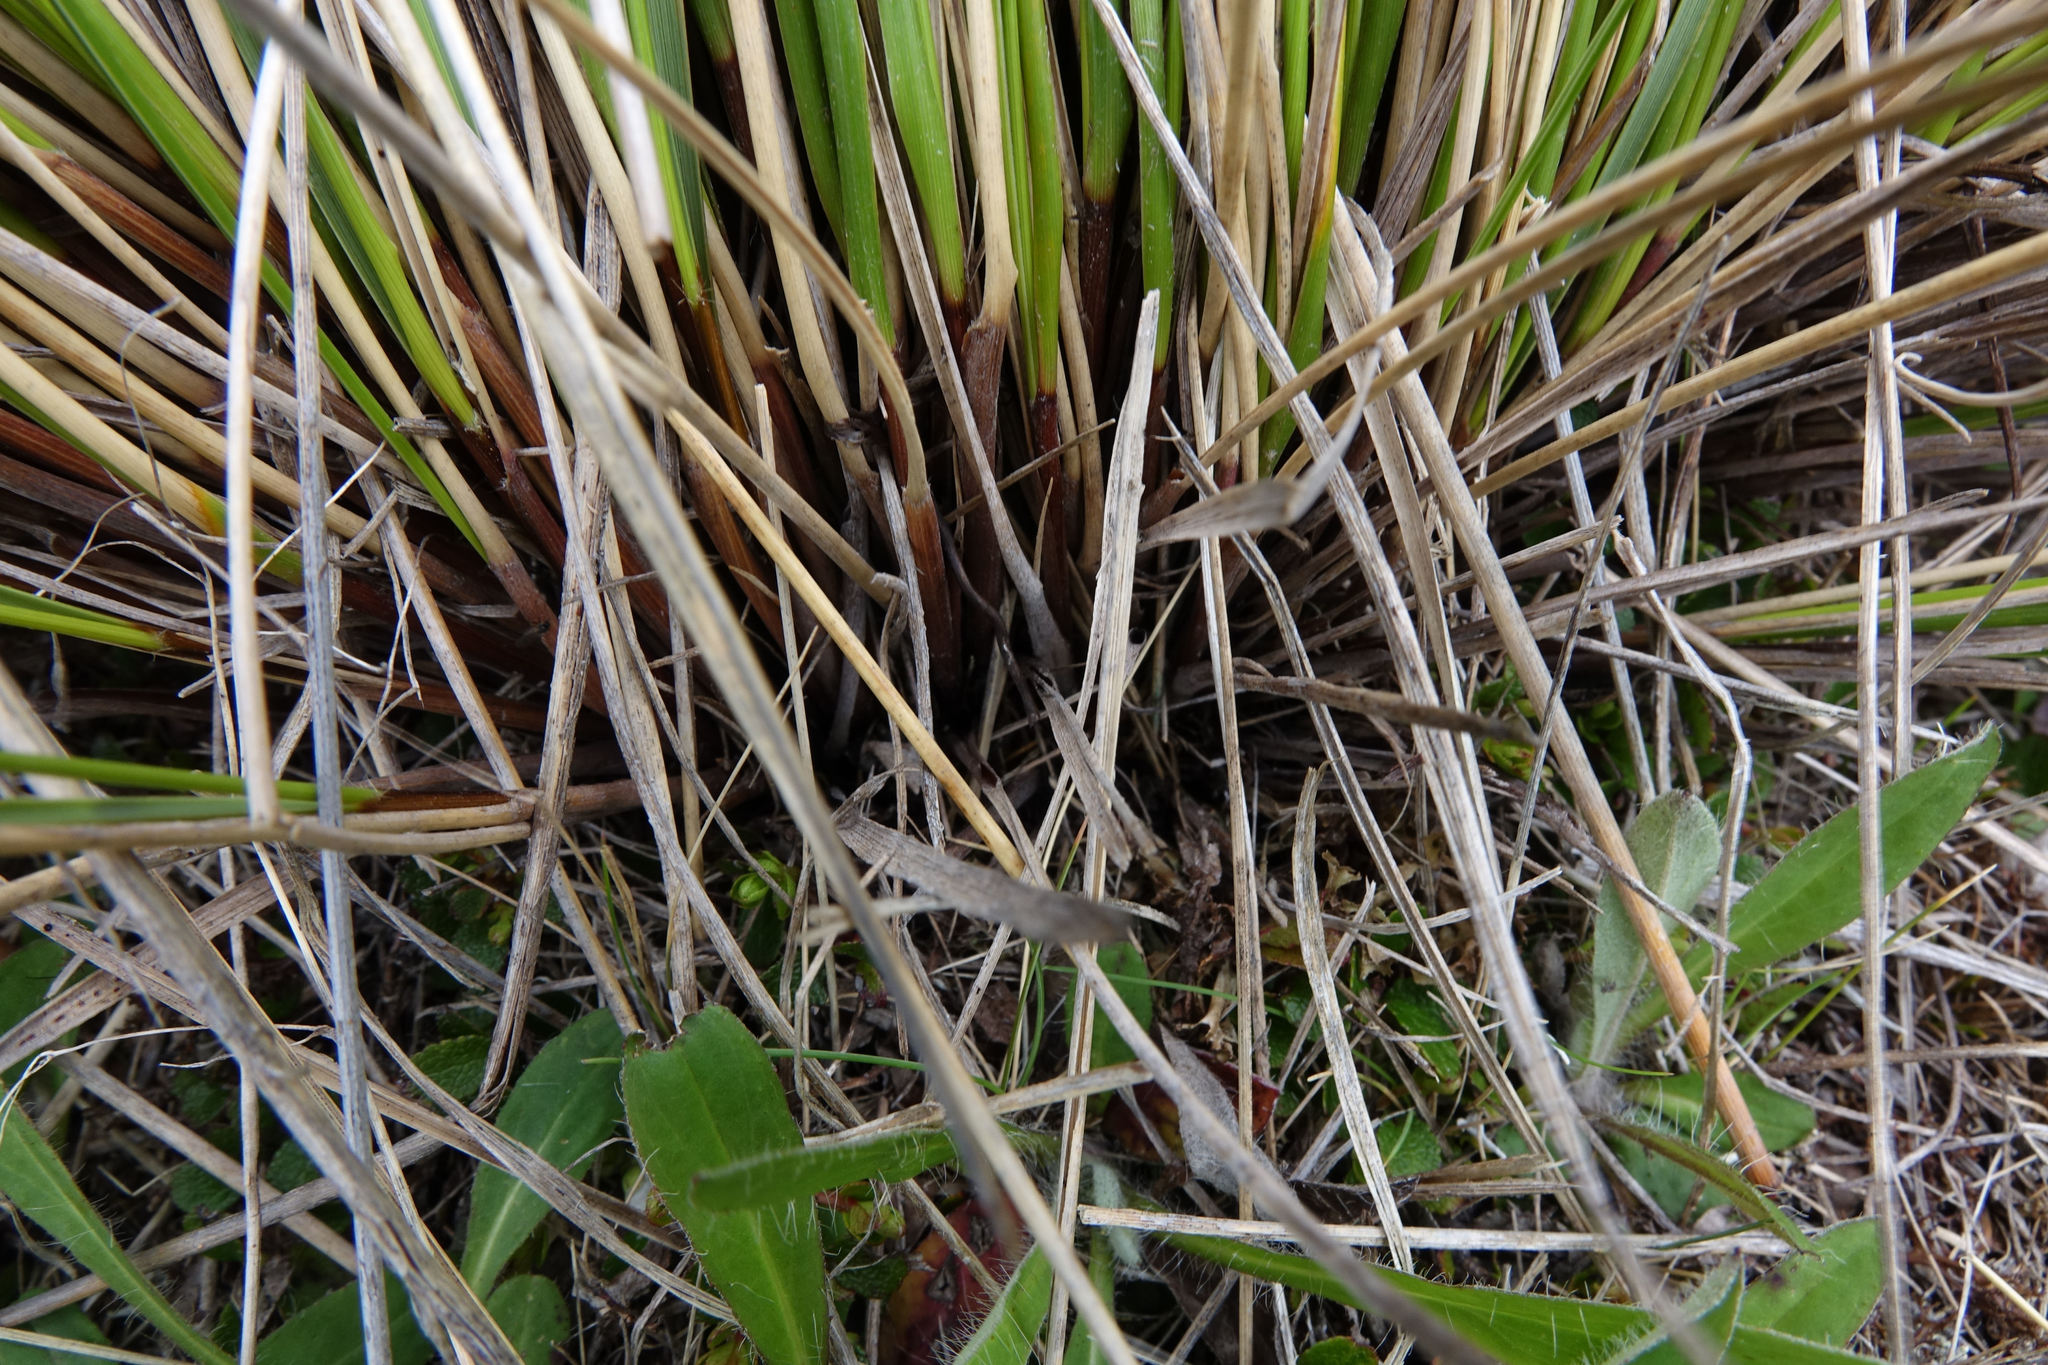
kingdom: Plantae
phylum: Tracheophyta
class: Liliopsida
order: Poales
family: Poaceae
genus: Chionochloa
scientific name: Chionochloa macra
